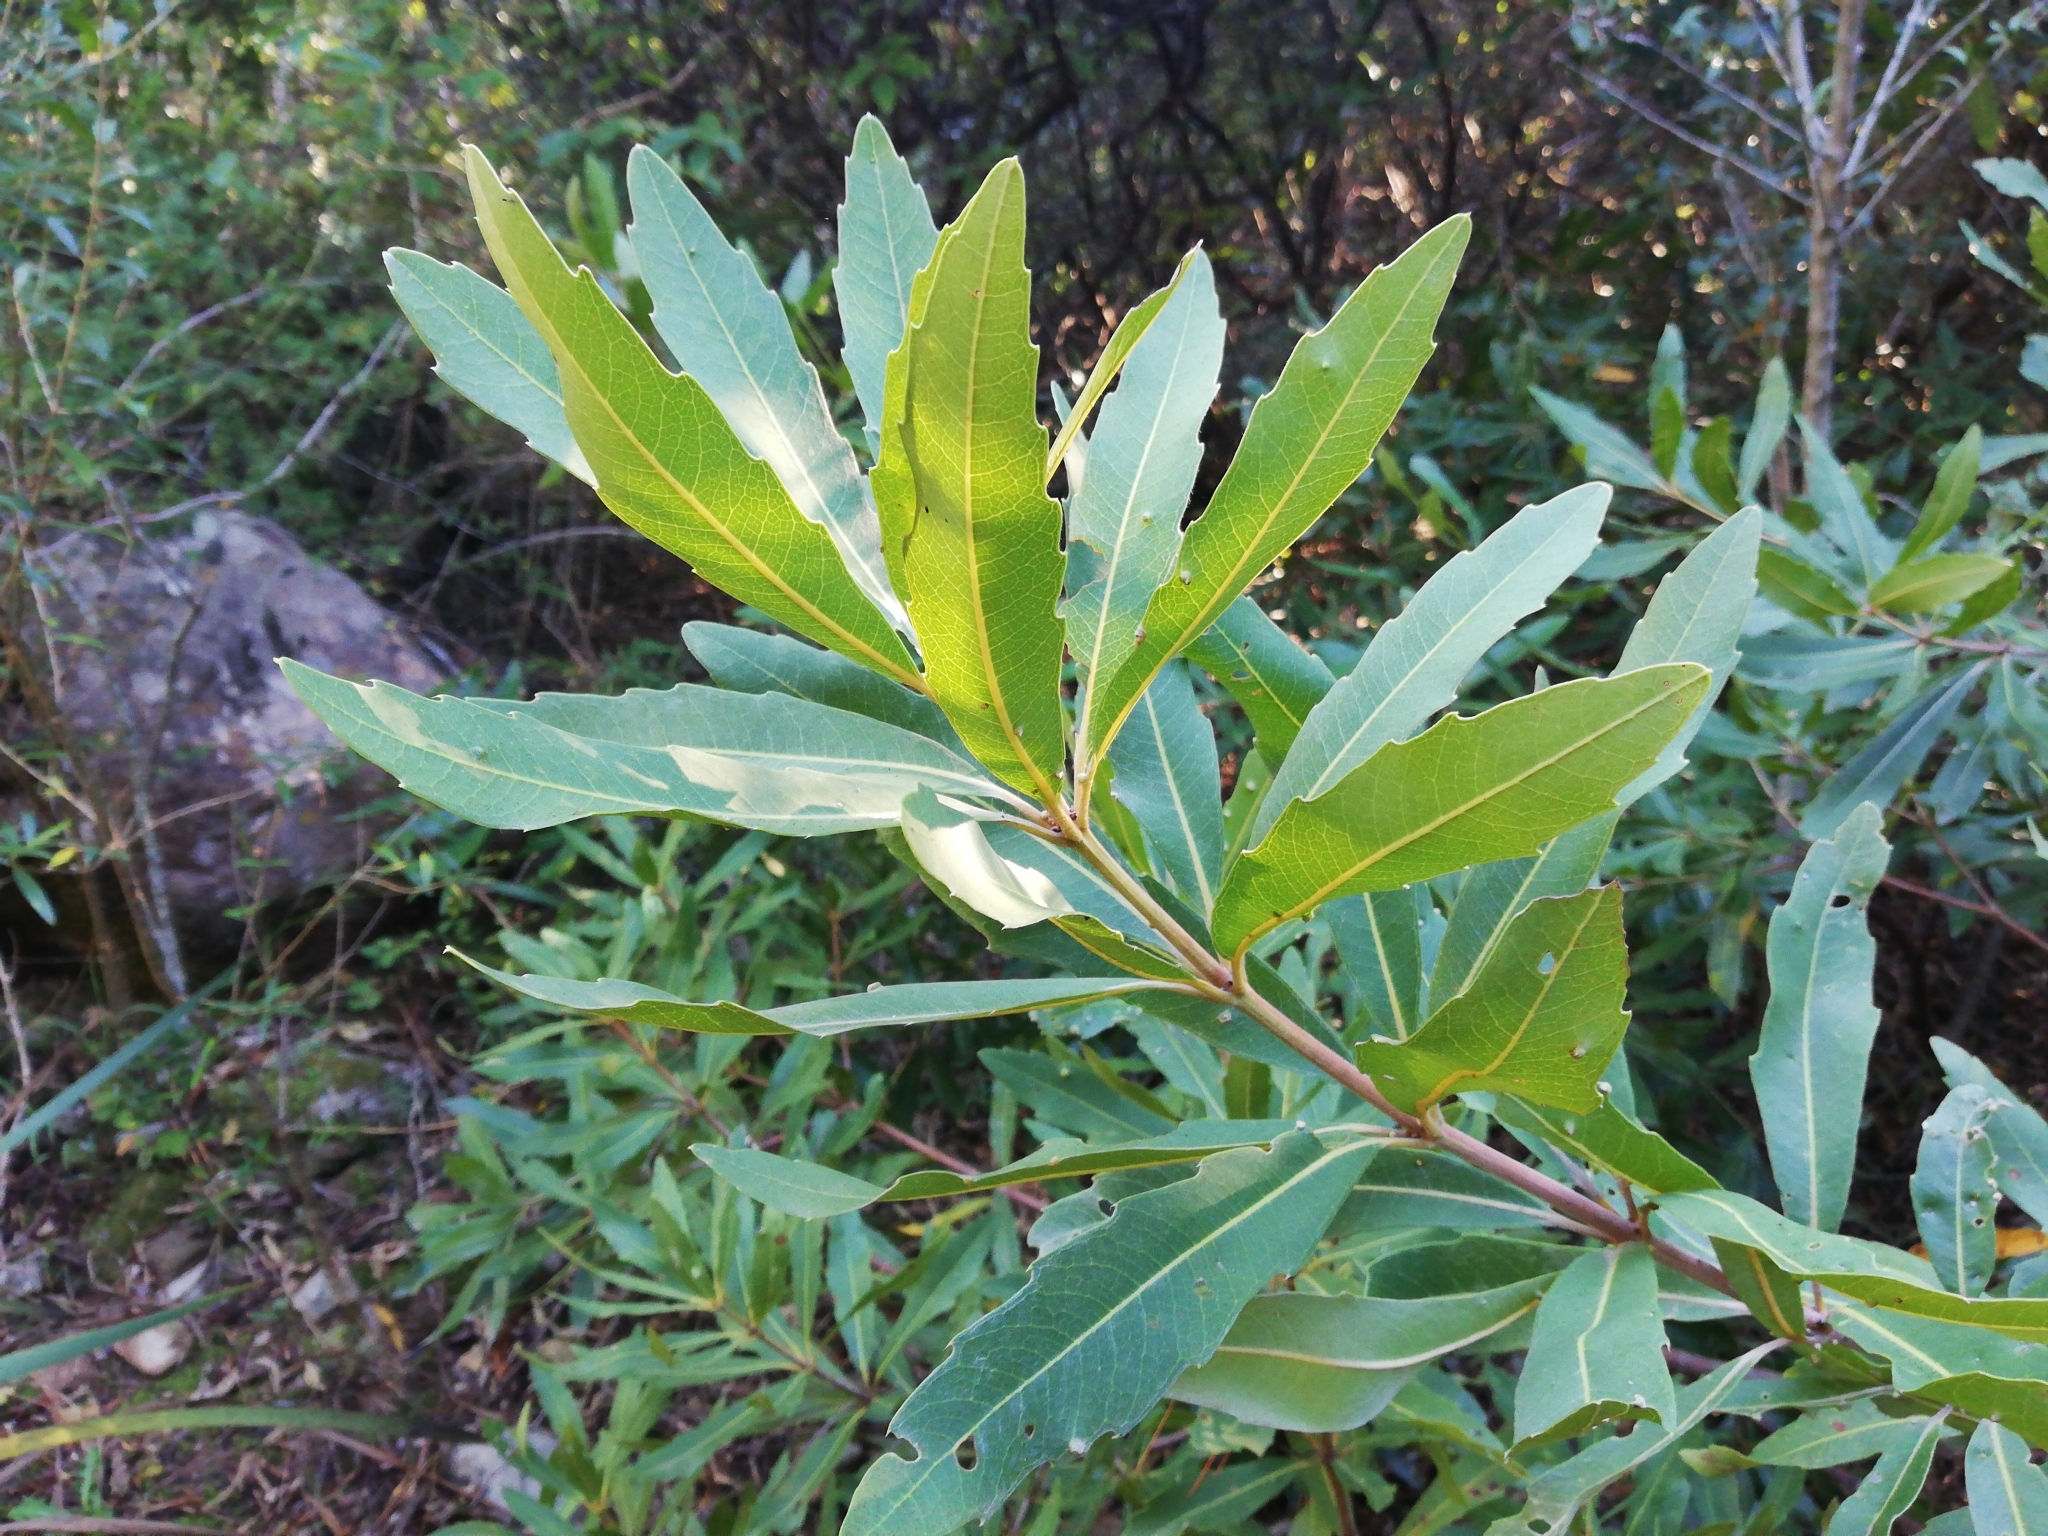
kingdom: Plantae
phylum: Tracheophyta
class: Magnoliopsida
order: Proteales
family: Proteaceae
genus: Brabejum
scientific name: Brabejum stellatifolium
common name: Wild almond
